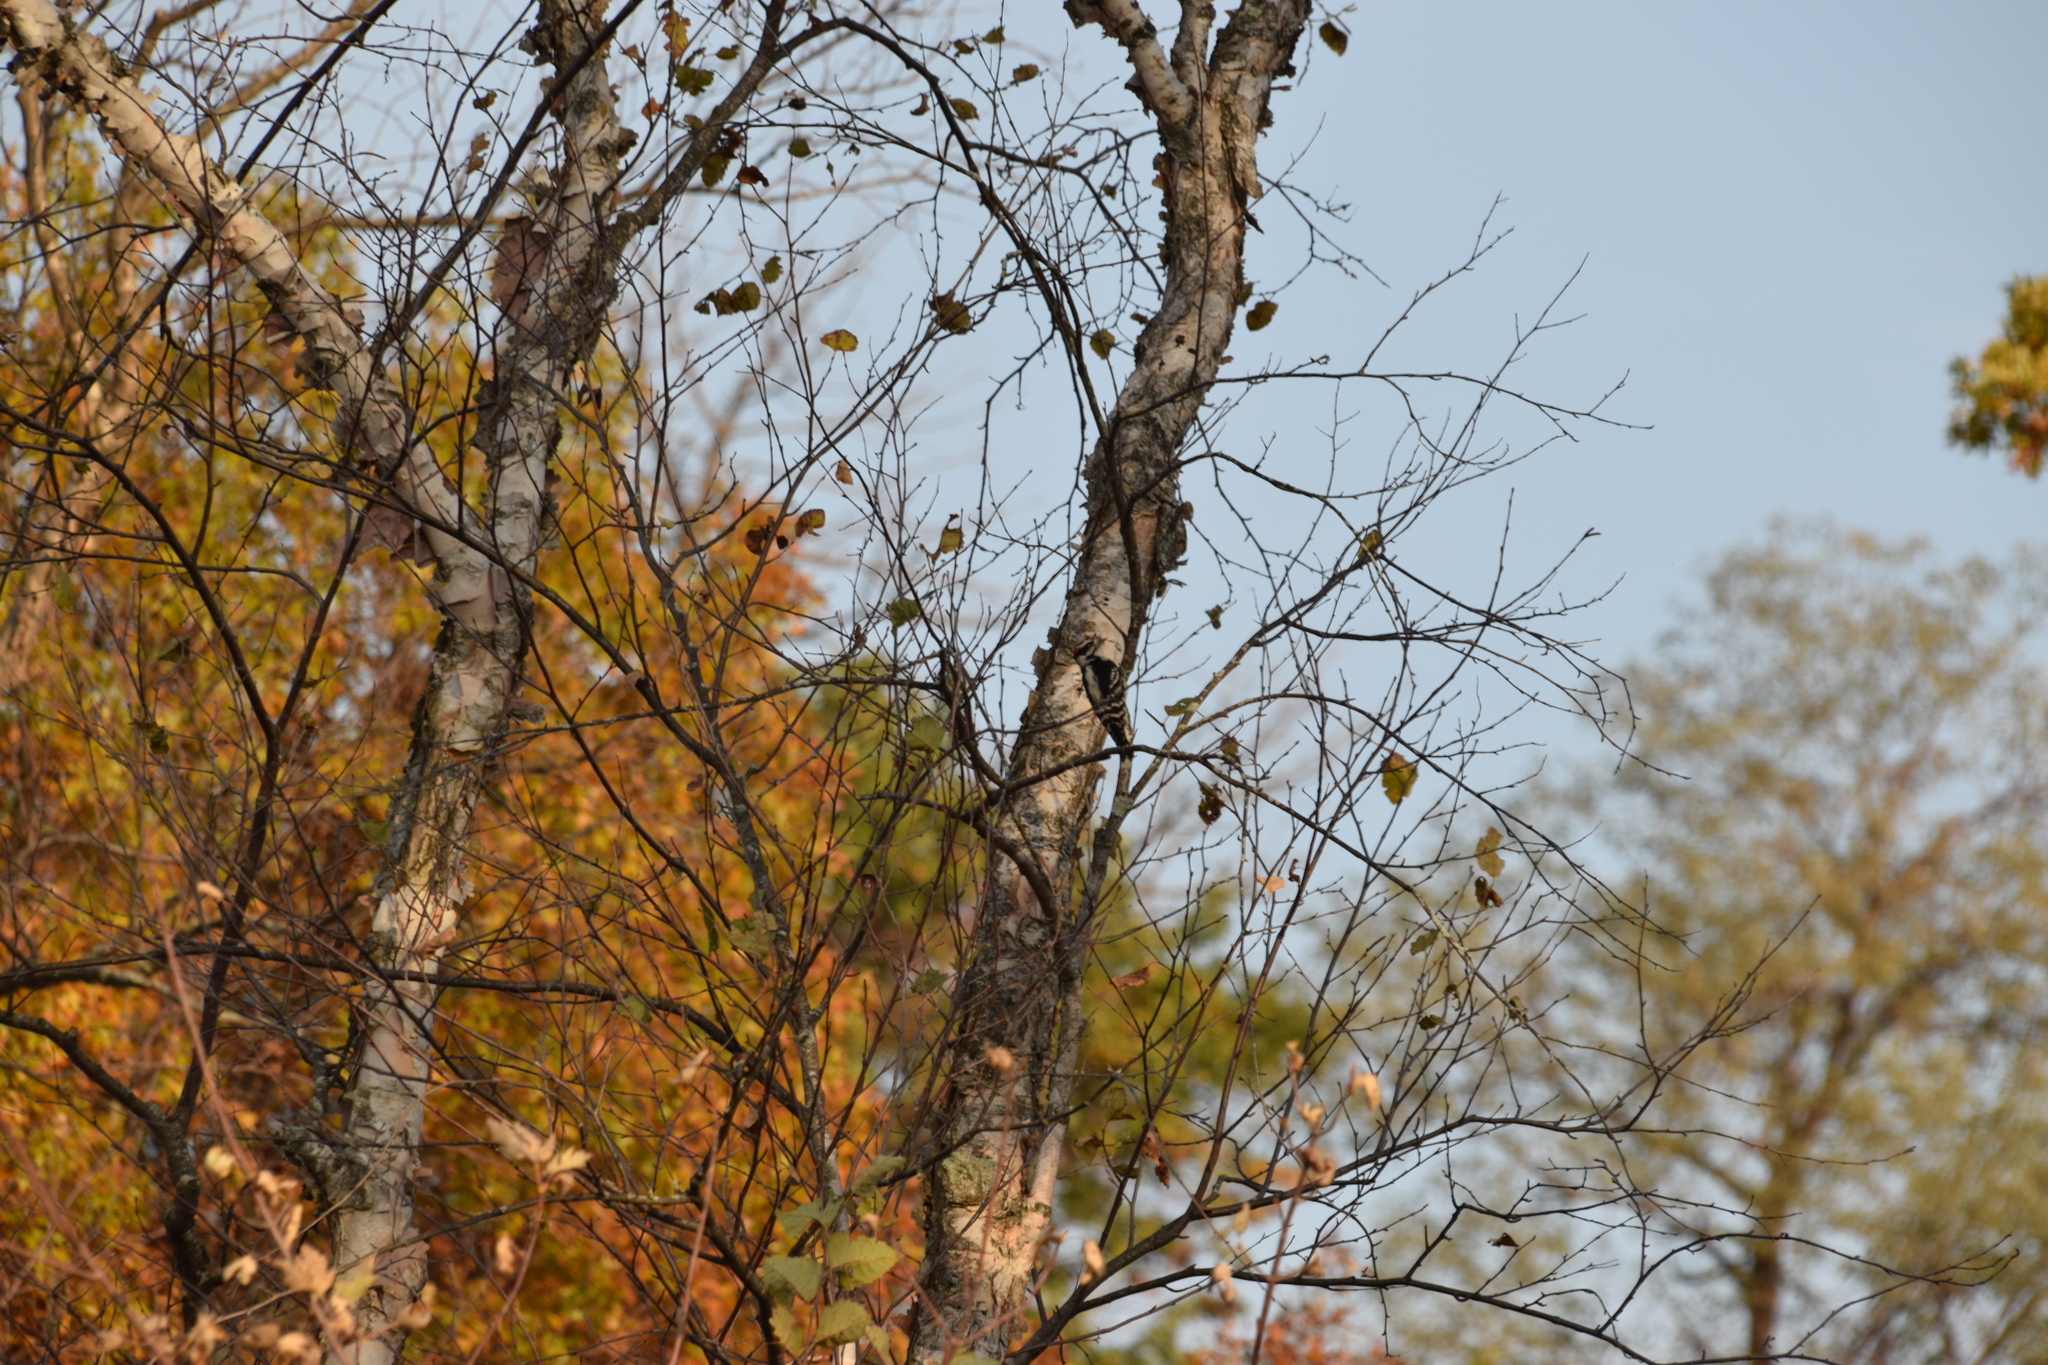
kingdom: Animalia
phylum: Chordata
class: Aves
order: Piciformes
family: Picidae
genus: Dryobates
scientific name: Dryobates pubescens
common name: Downy woodpecker
